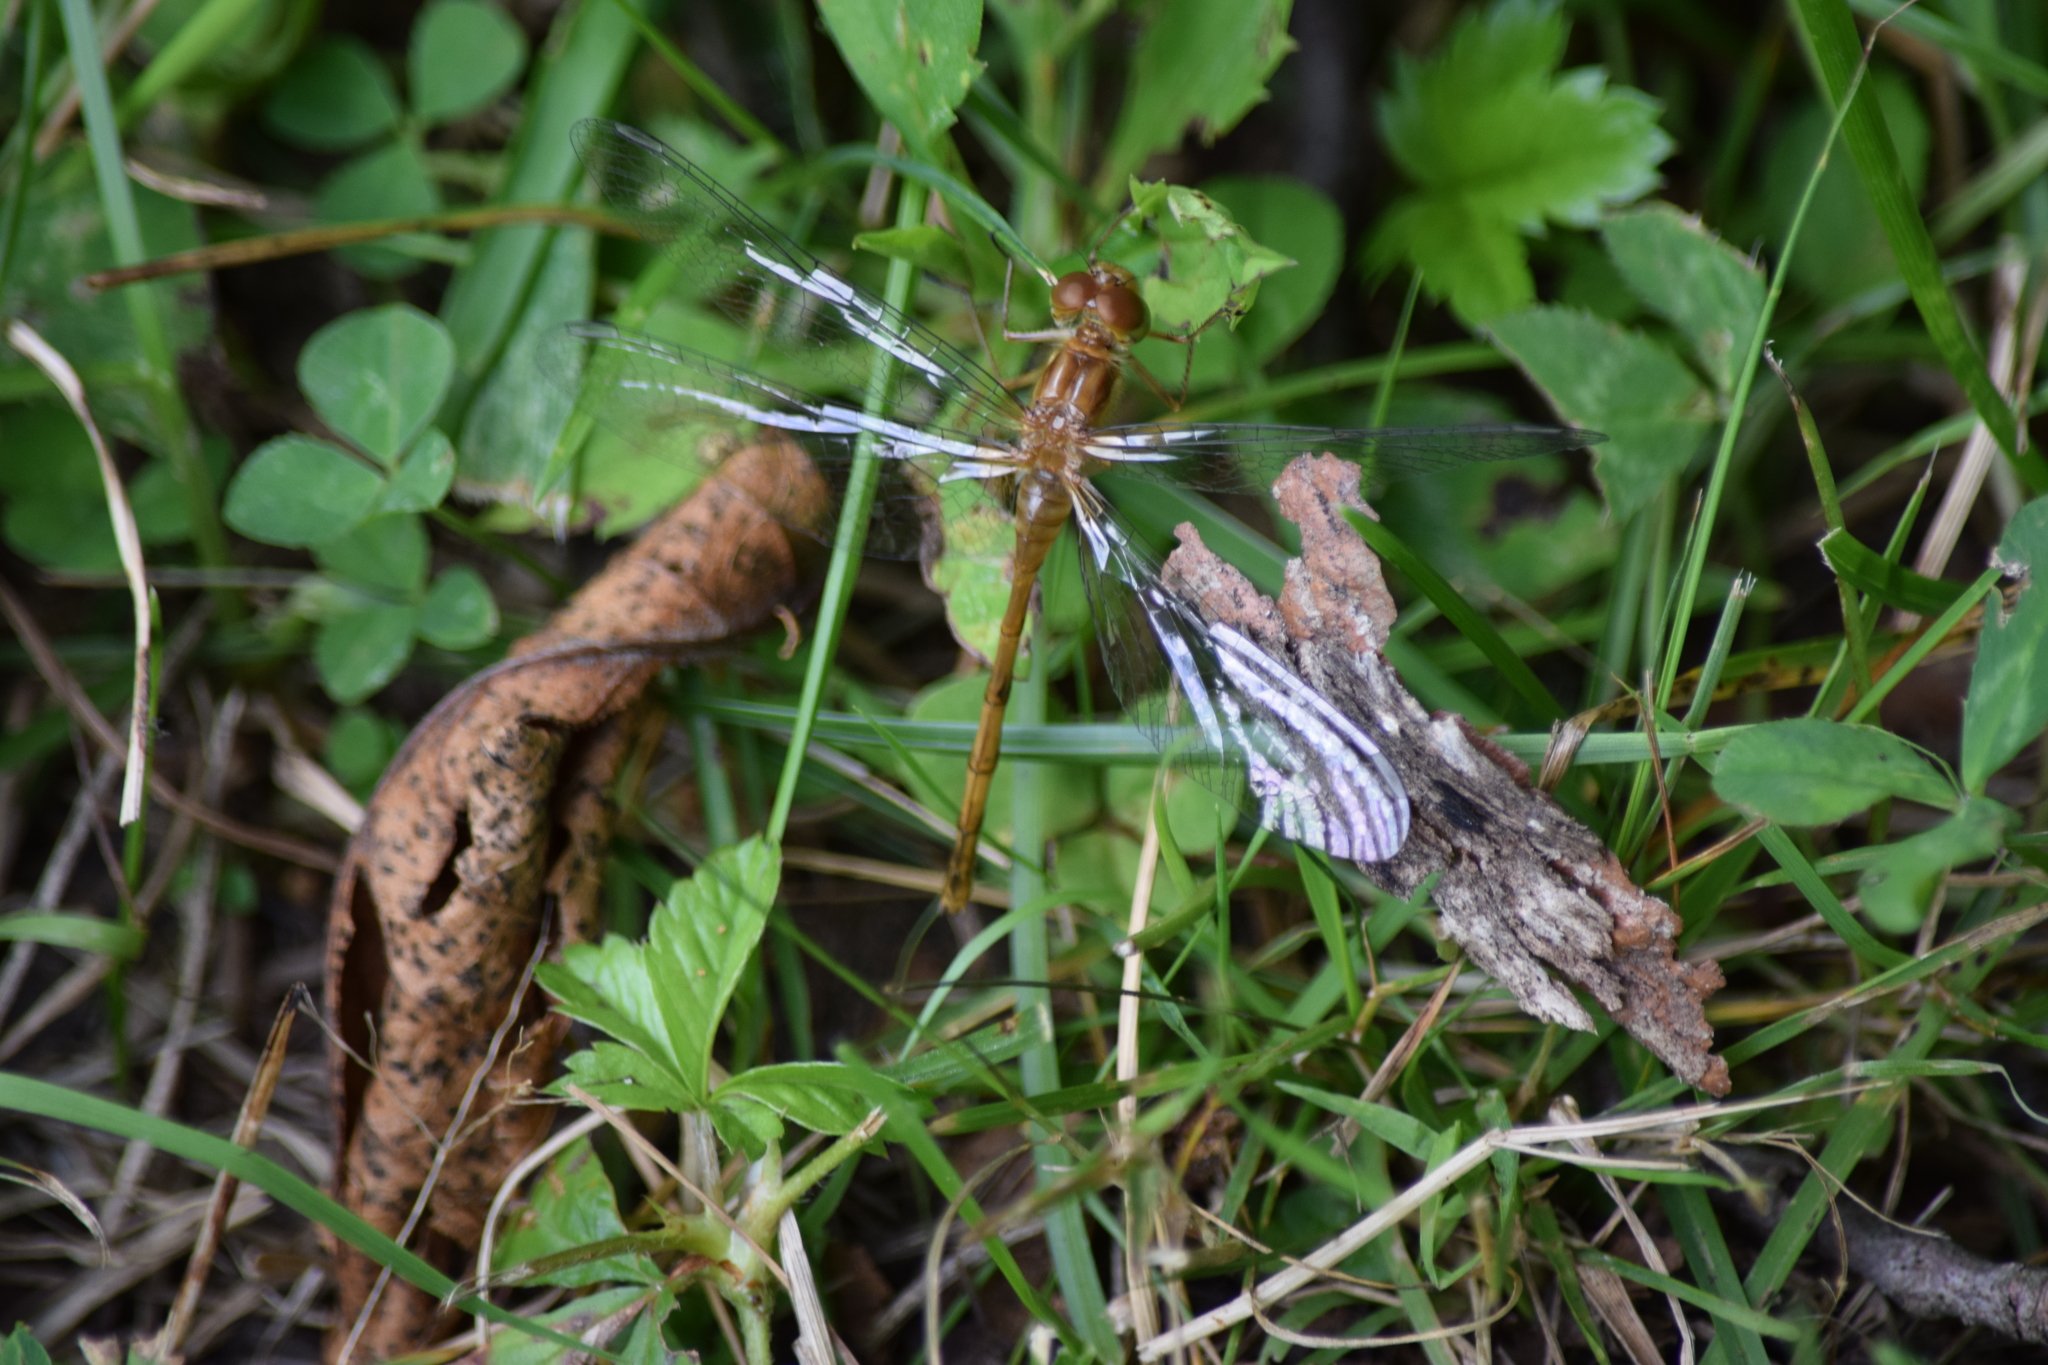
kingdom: Animalia
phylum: Arthropoda
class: Insecta
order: Odonata
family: Libellulidae
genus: Sympetrum
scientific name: Sympetrum vicinum
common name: Autumn meadowhawk
